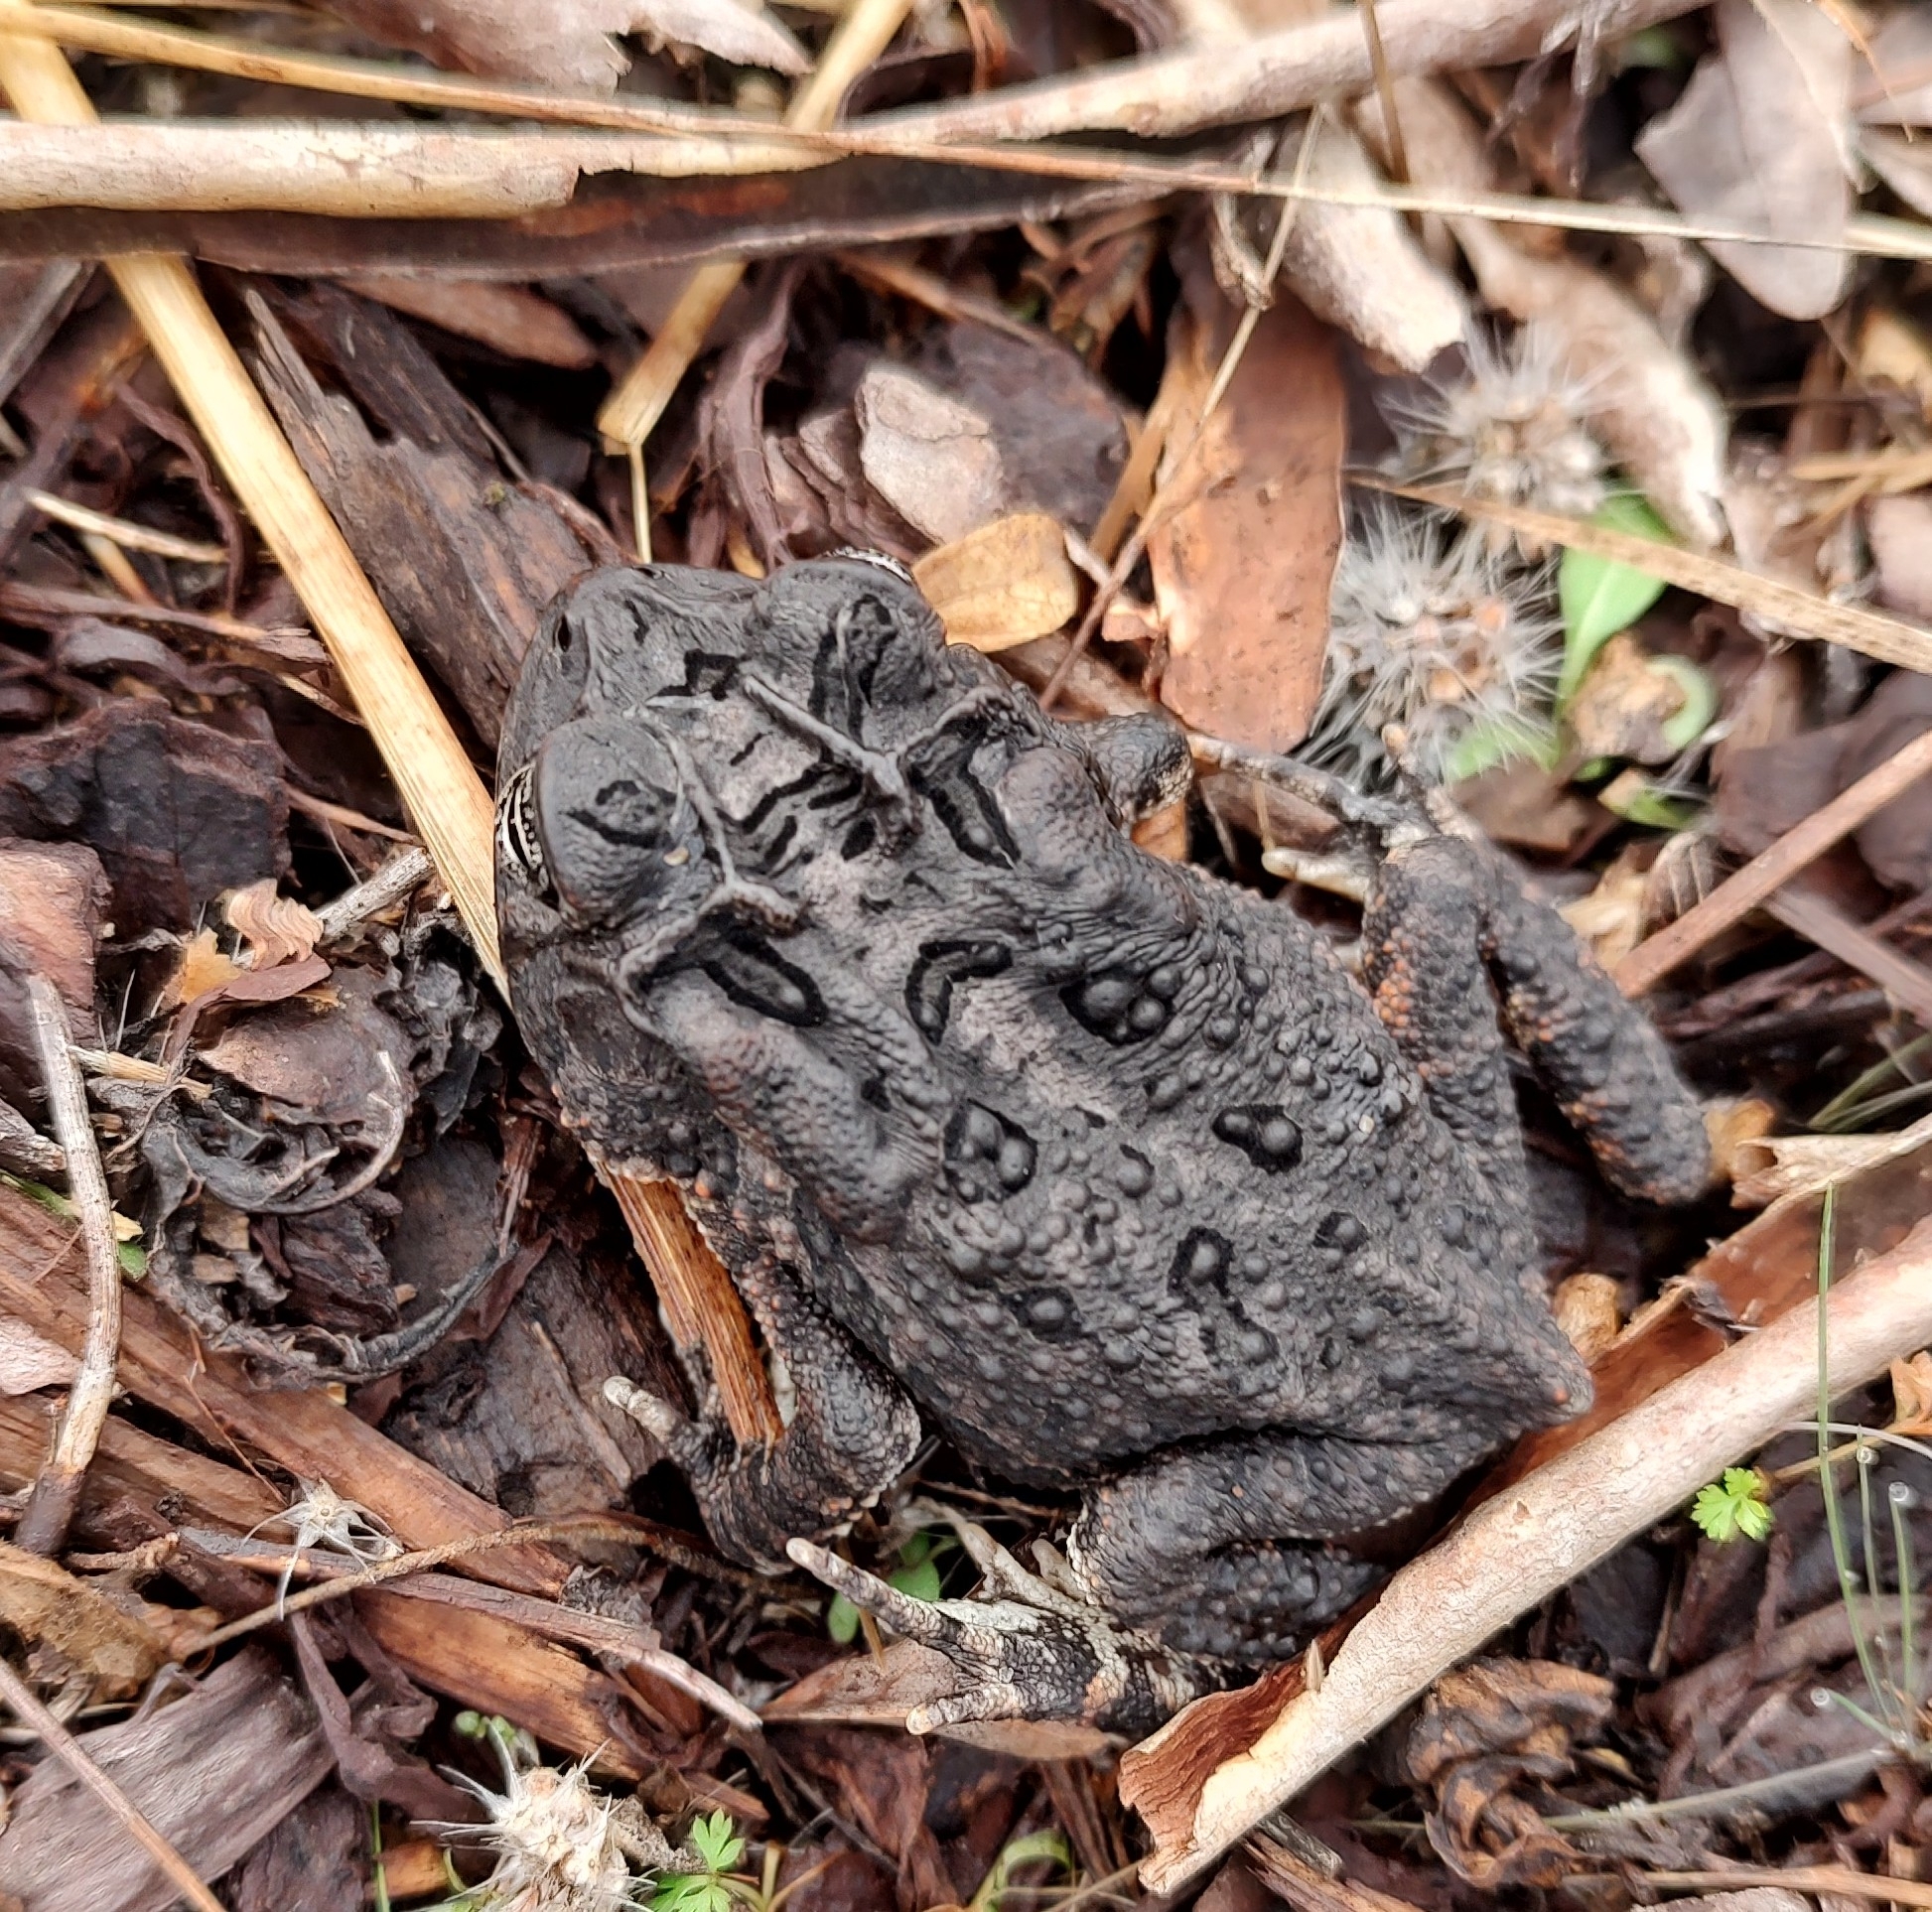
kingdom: Animalia
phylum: Chordata
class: Amphibia
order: Anura
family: Bufonidae
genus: Anaxyrus
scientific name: Anaxyrus terrestris
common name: Southern toad
